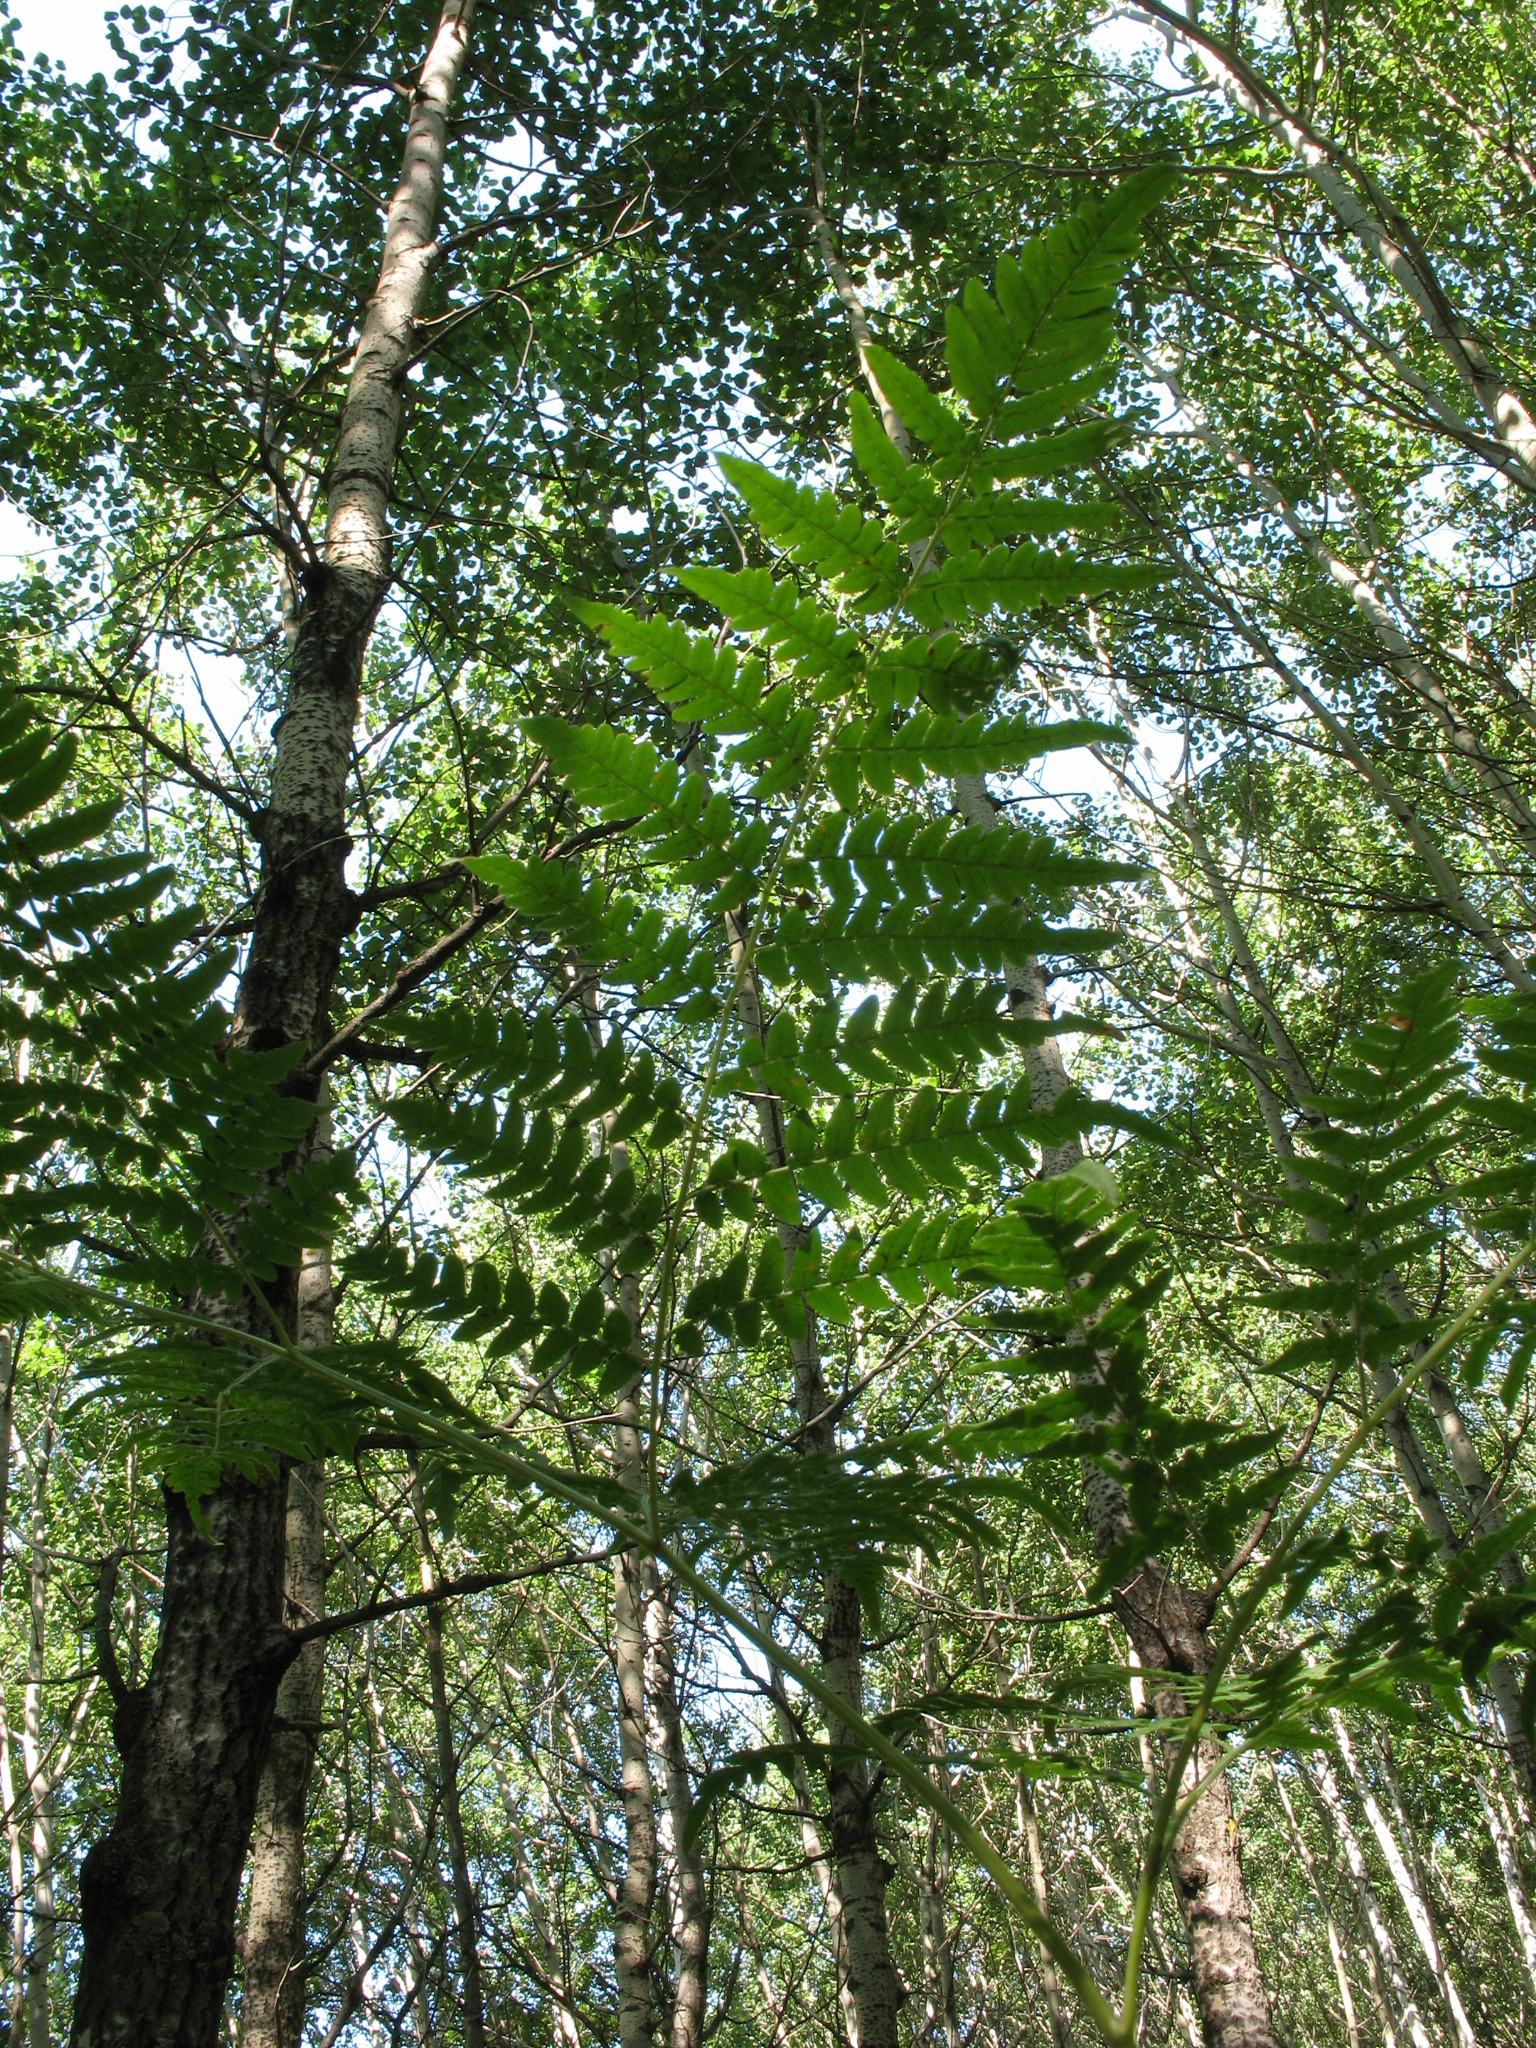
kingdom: Plantae
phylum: Tracheophyta
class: Polypodiopsida
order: Polypodiales
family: Dennstaedtiaceae
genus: Pteridium
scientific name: Pteridium aquilinum
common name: Bracken
